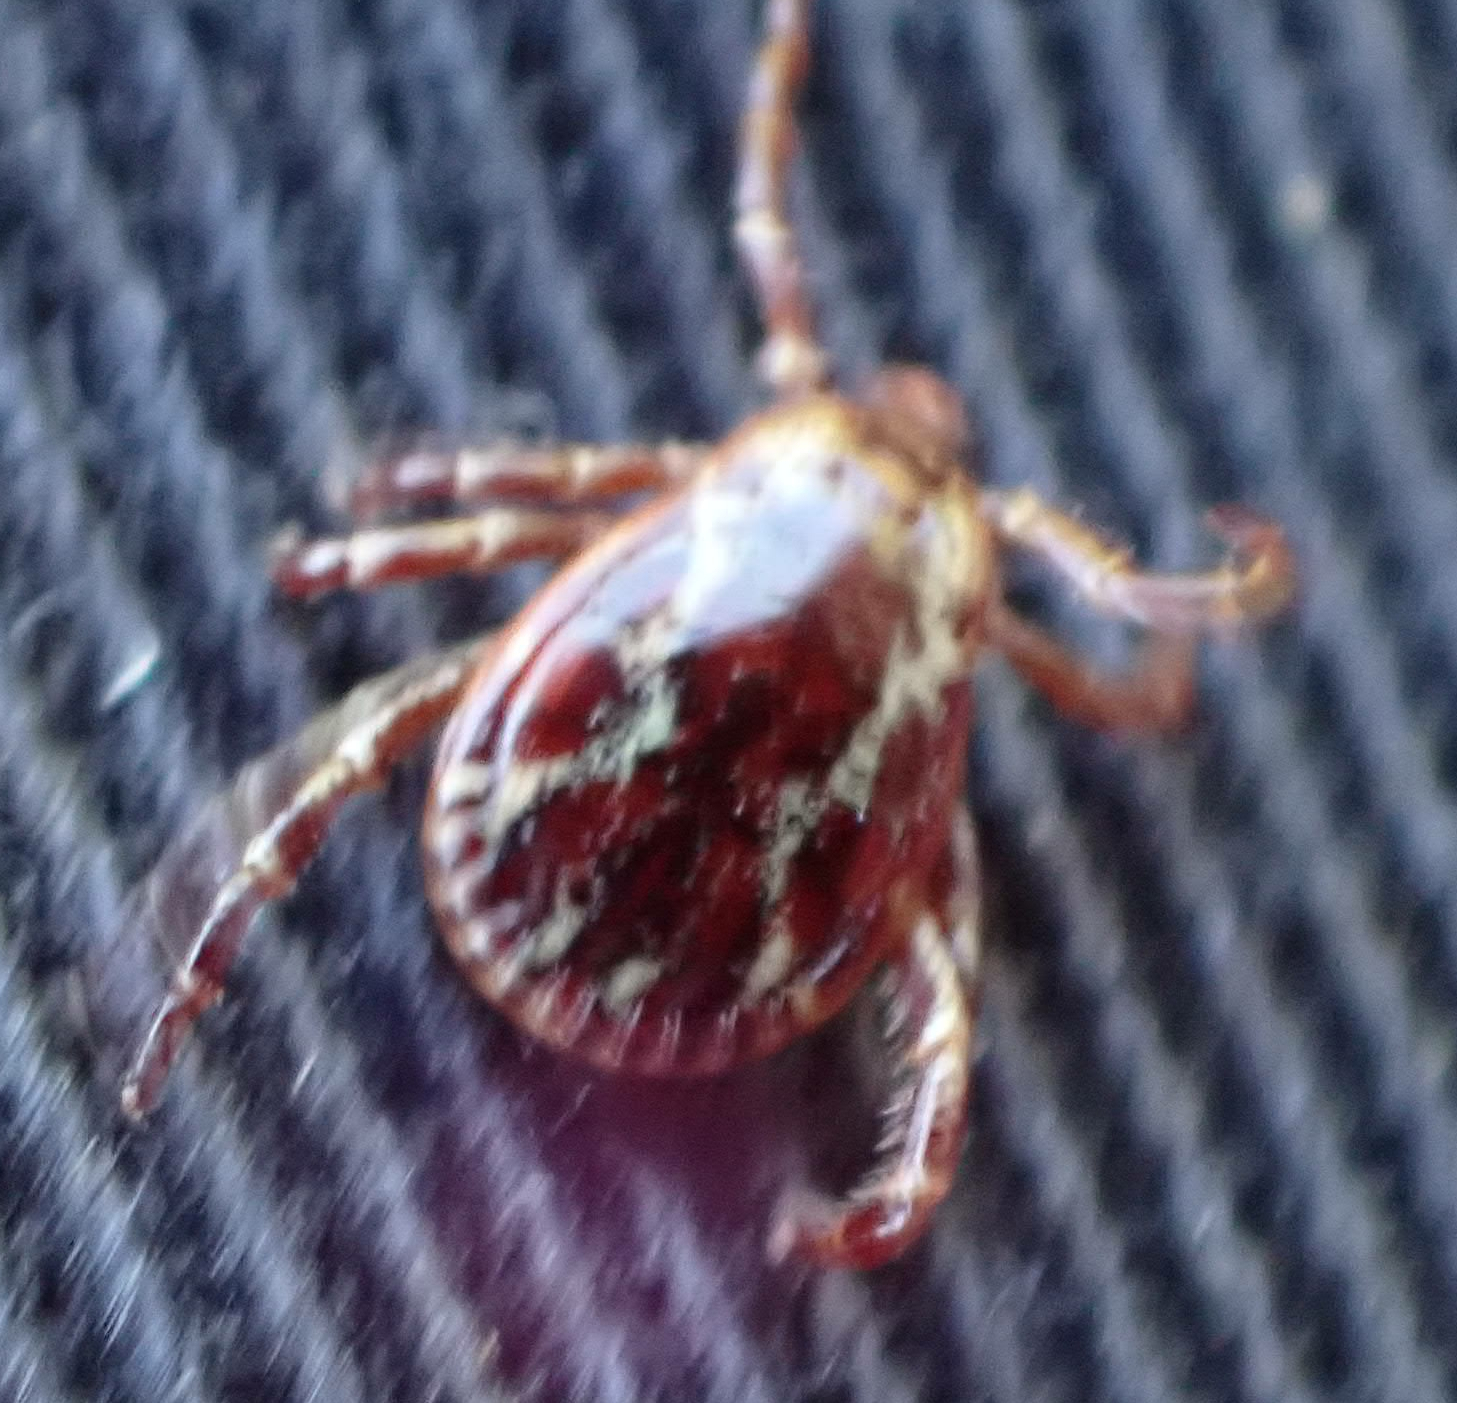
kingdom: Animalia
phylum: Arthropoda
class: Arachnida
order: Ixodida
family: Ixodidae
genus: Dermacentor
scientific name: Dermacentor variabilis
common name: American dog tick
